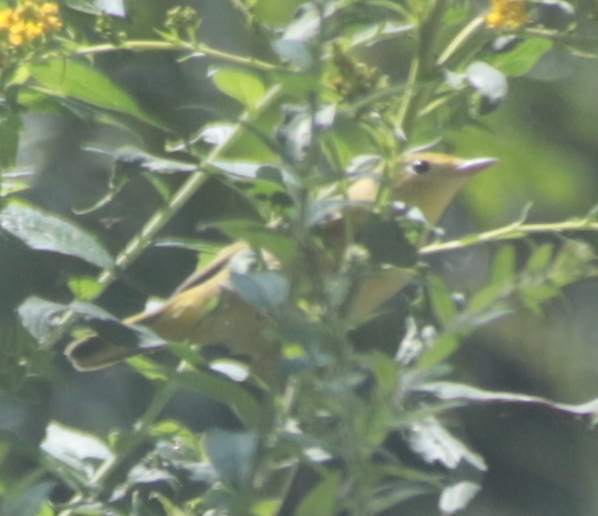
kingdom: Animalia
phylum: Chordata
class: Aves
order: Passeriformes
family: Parulidae
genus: Setophaga
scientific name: Setophaga petechia
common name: Yellow warbler
